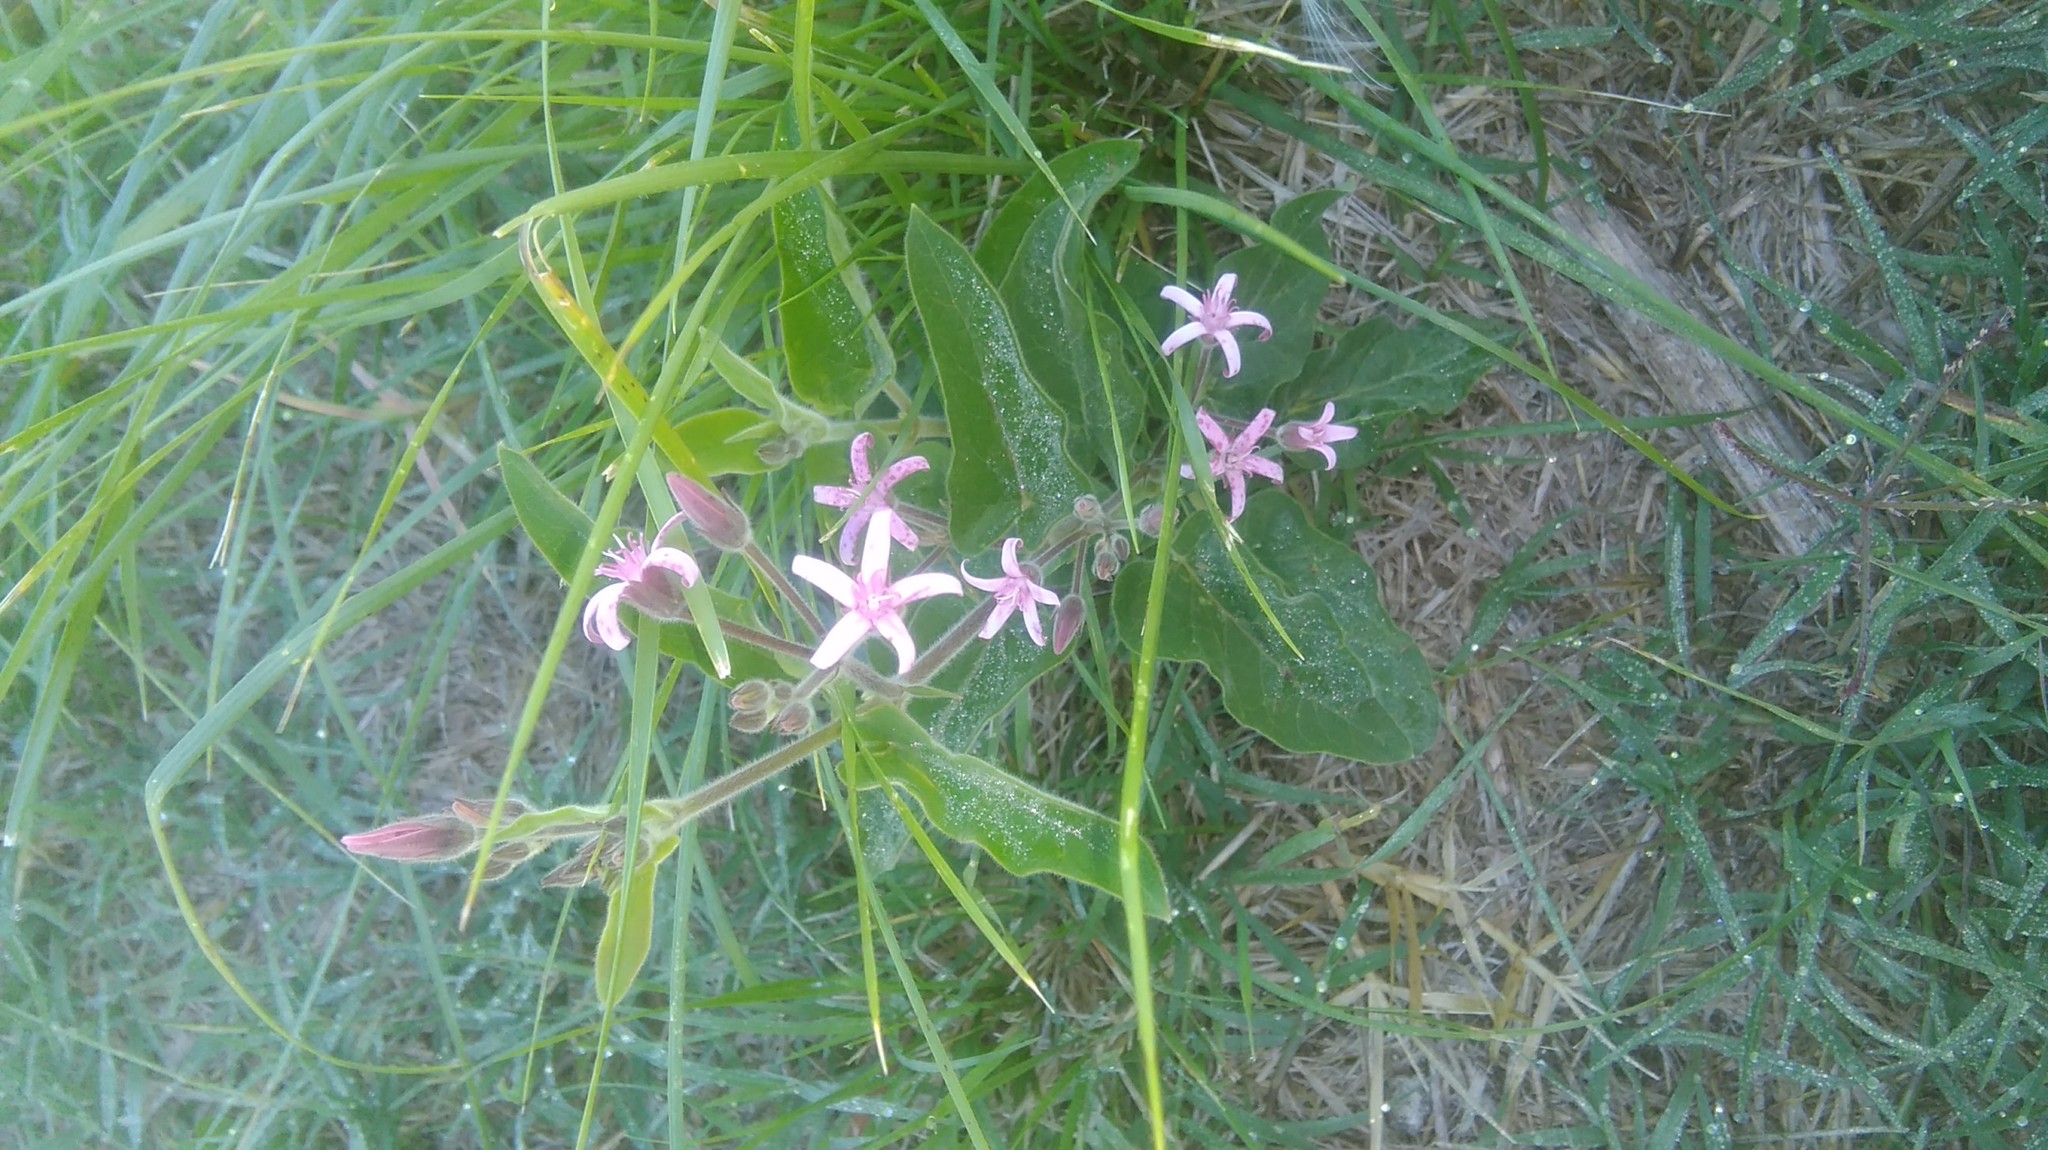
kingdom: Plantae
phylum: Tracheophyta
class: Magnoliopsida
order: Gentianales
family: Apocynaceae
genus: Oxypetalum
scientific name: Oxypetalum solanoides
